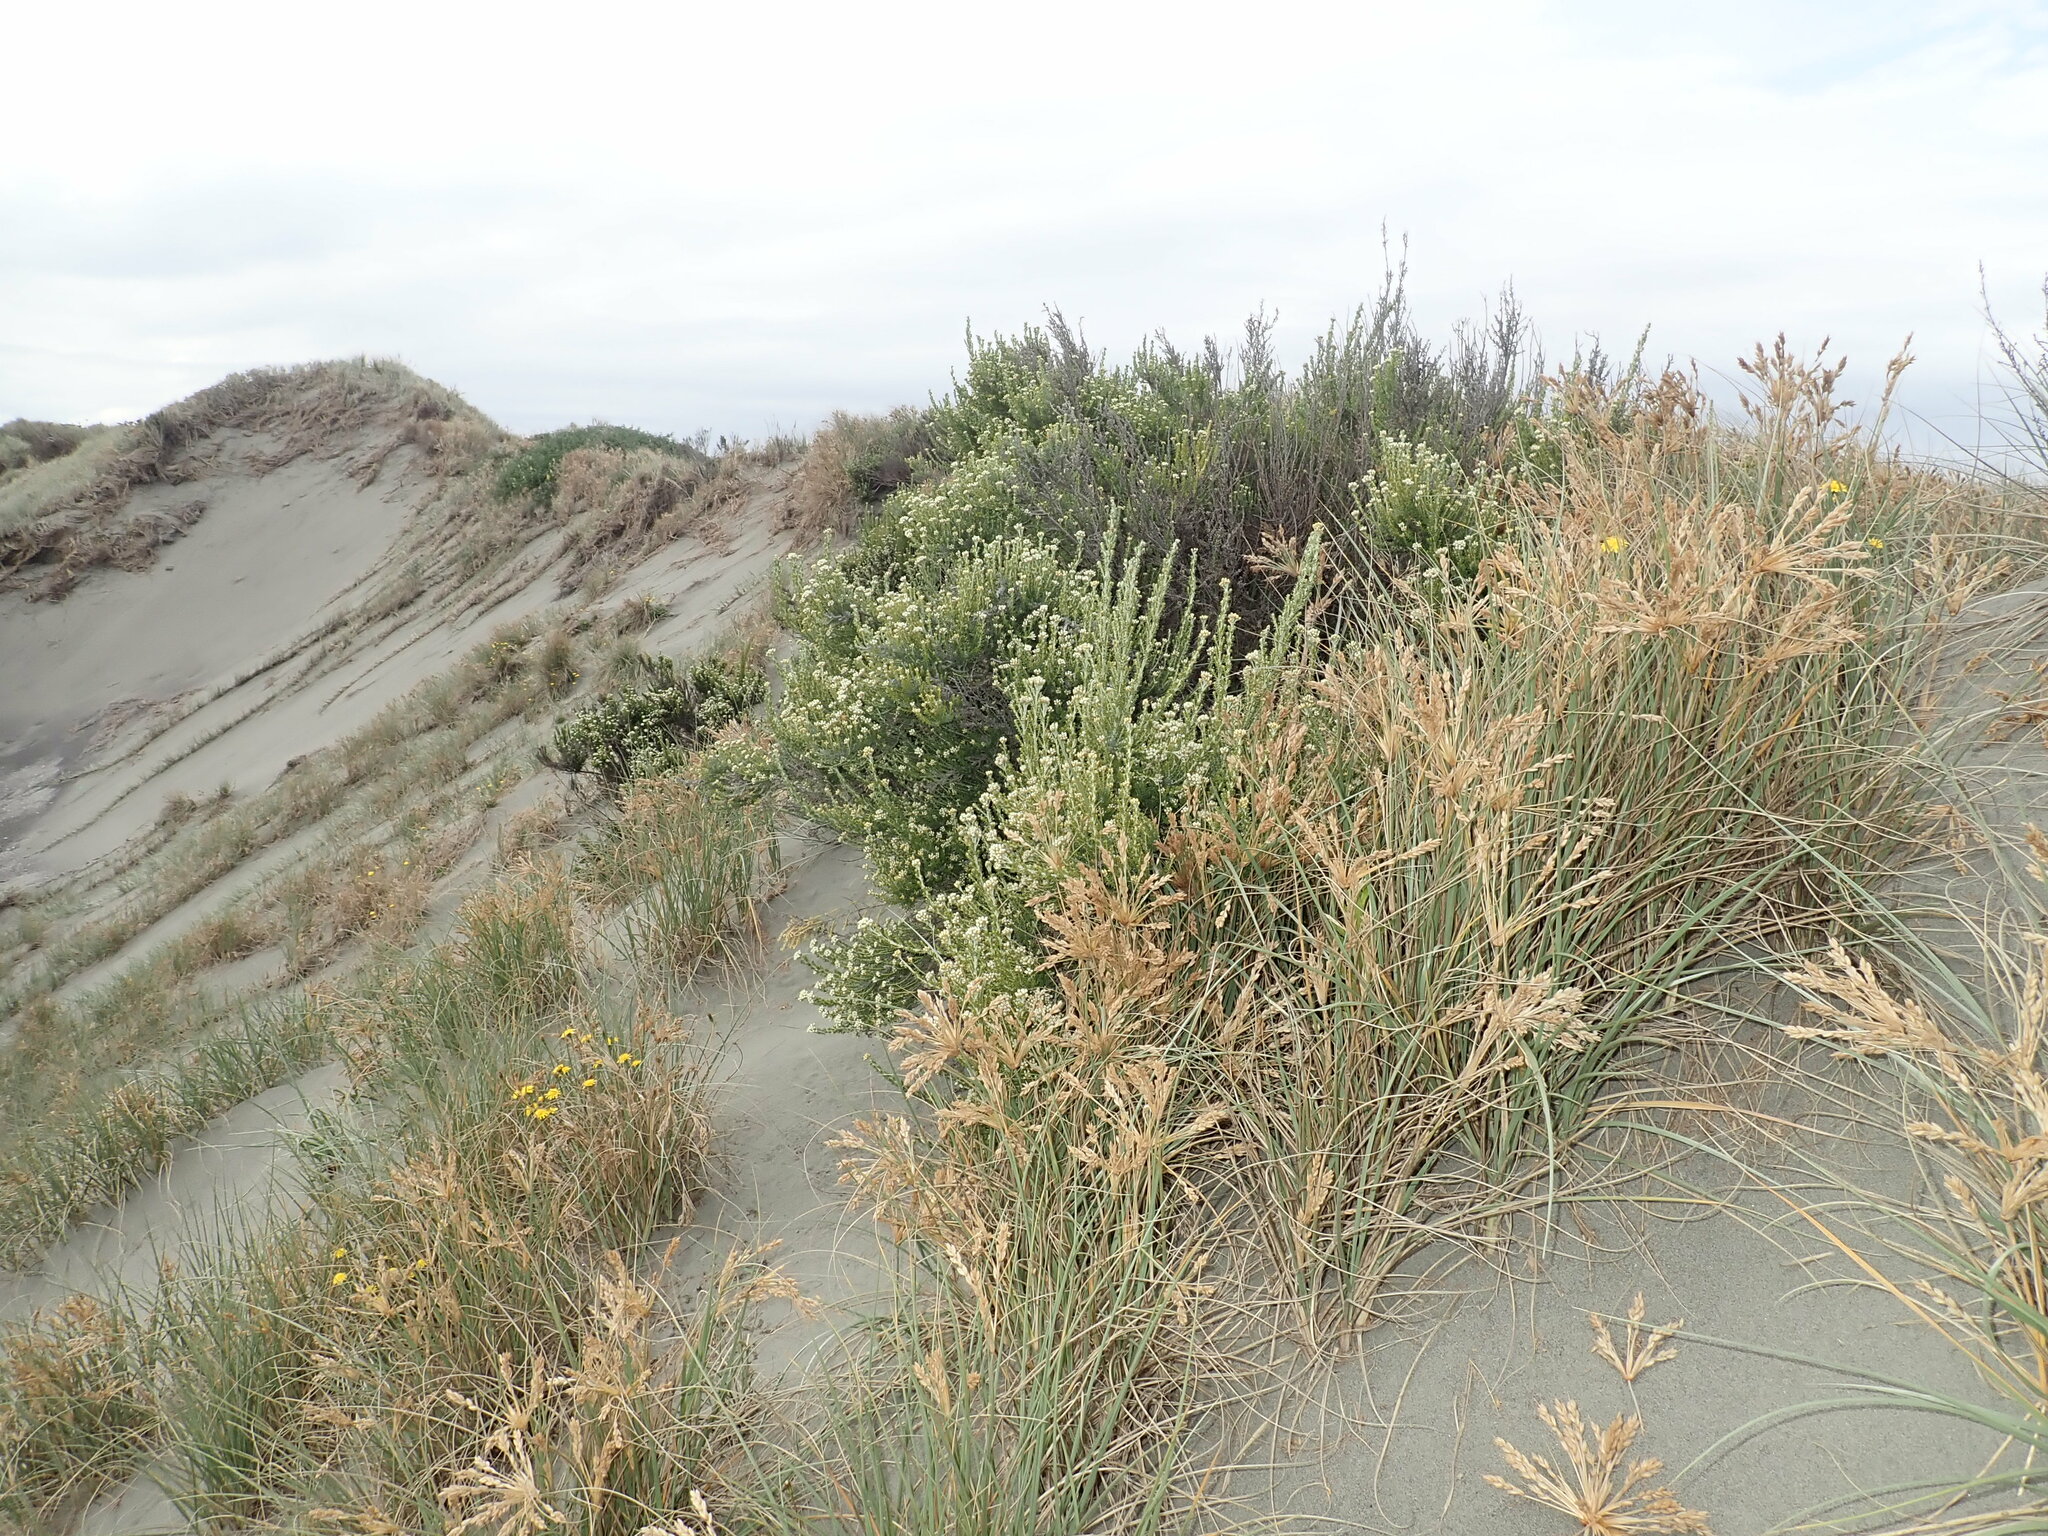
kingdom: Plantae
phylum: Tracheophyta
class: Magnoliopsida
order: Asterales
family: Asteraceae
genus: Ozothamnus
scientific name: Ozothamnus leptophyllus
